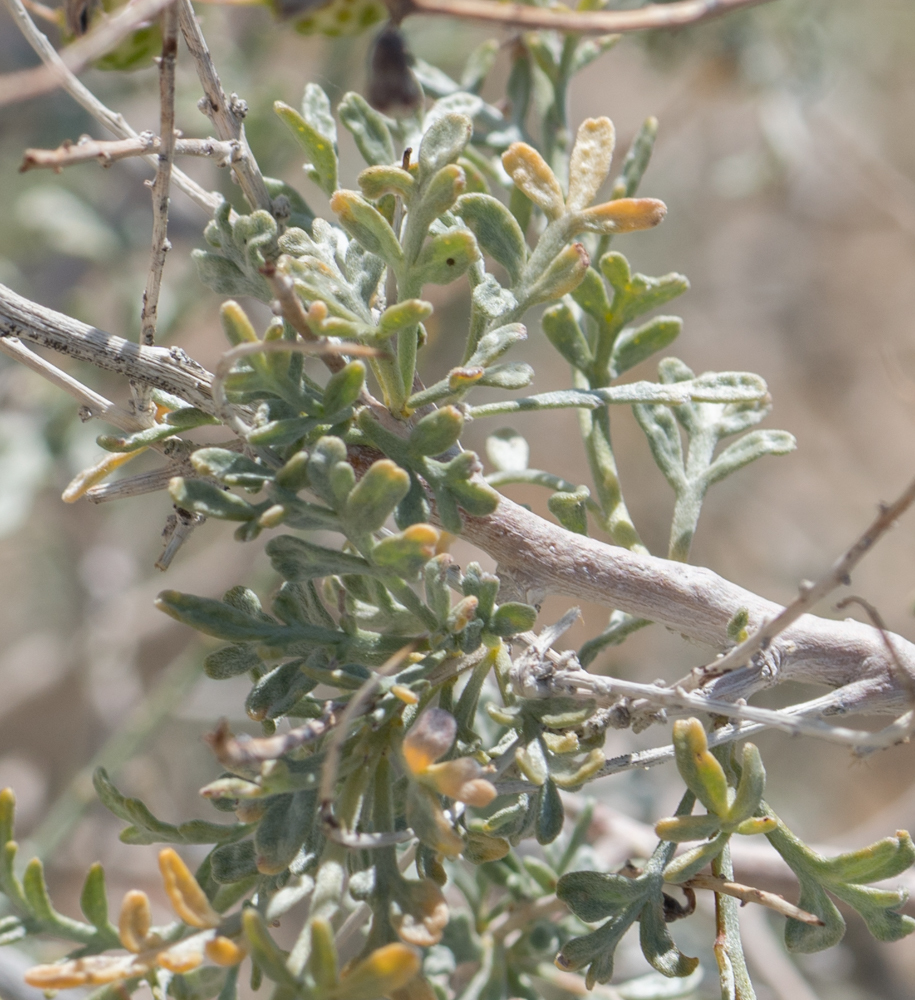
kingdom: Plantae
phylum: Tracheophyta
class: Magnoliopsida
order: Fabales
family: Fabaceae
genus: Psorothamnus
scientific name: Psorothamnus arborescens
